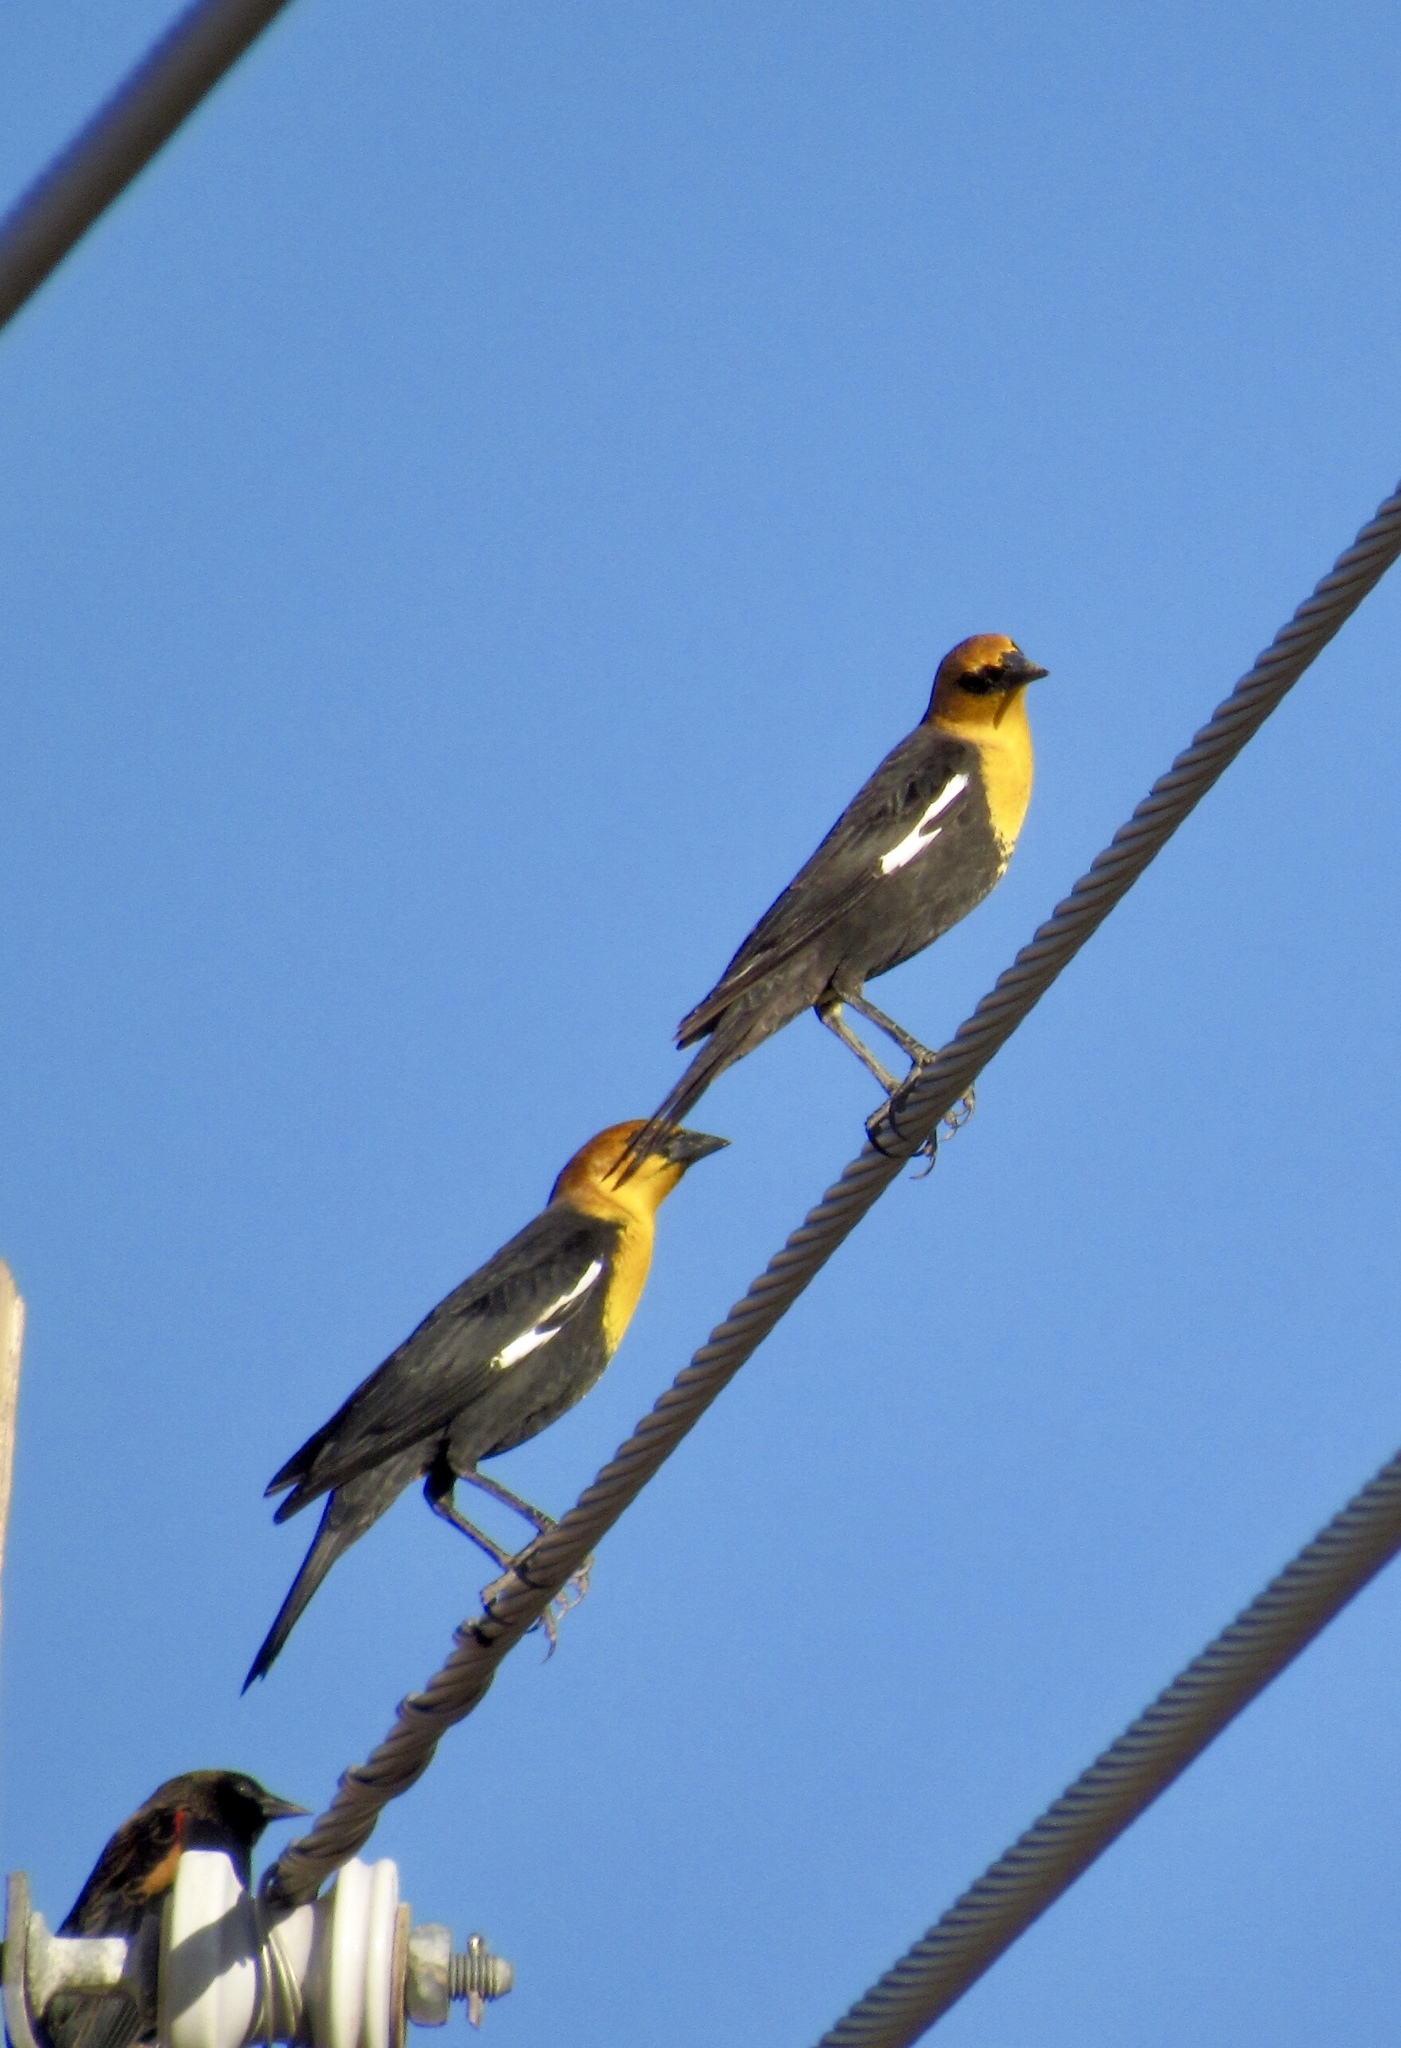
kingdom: Animalia
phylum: Chordata
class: Aves
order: Passeriformes
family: Icteridae
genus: Xanthocephalus
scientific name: Xanthocephalus xanthocephalus
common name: Yellow-headed blackbird
